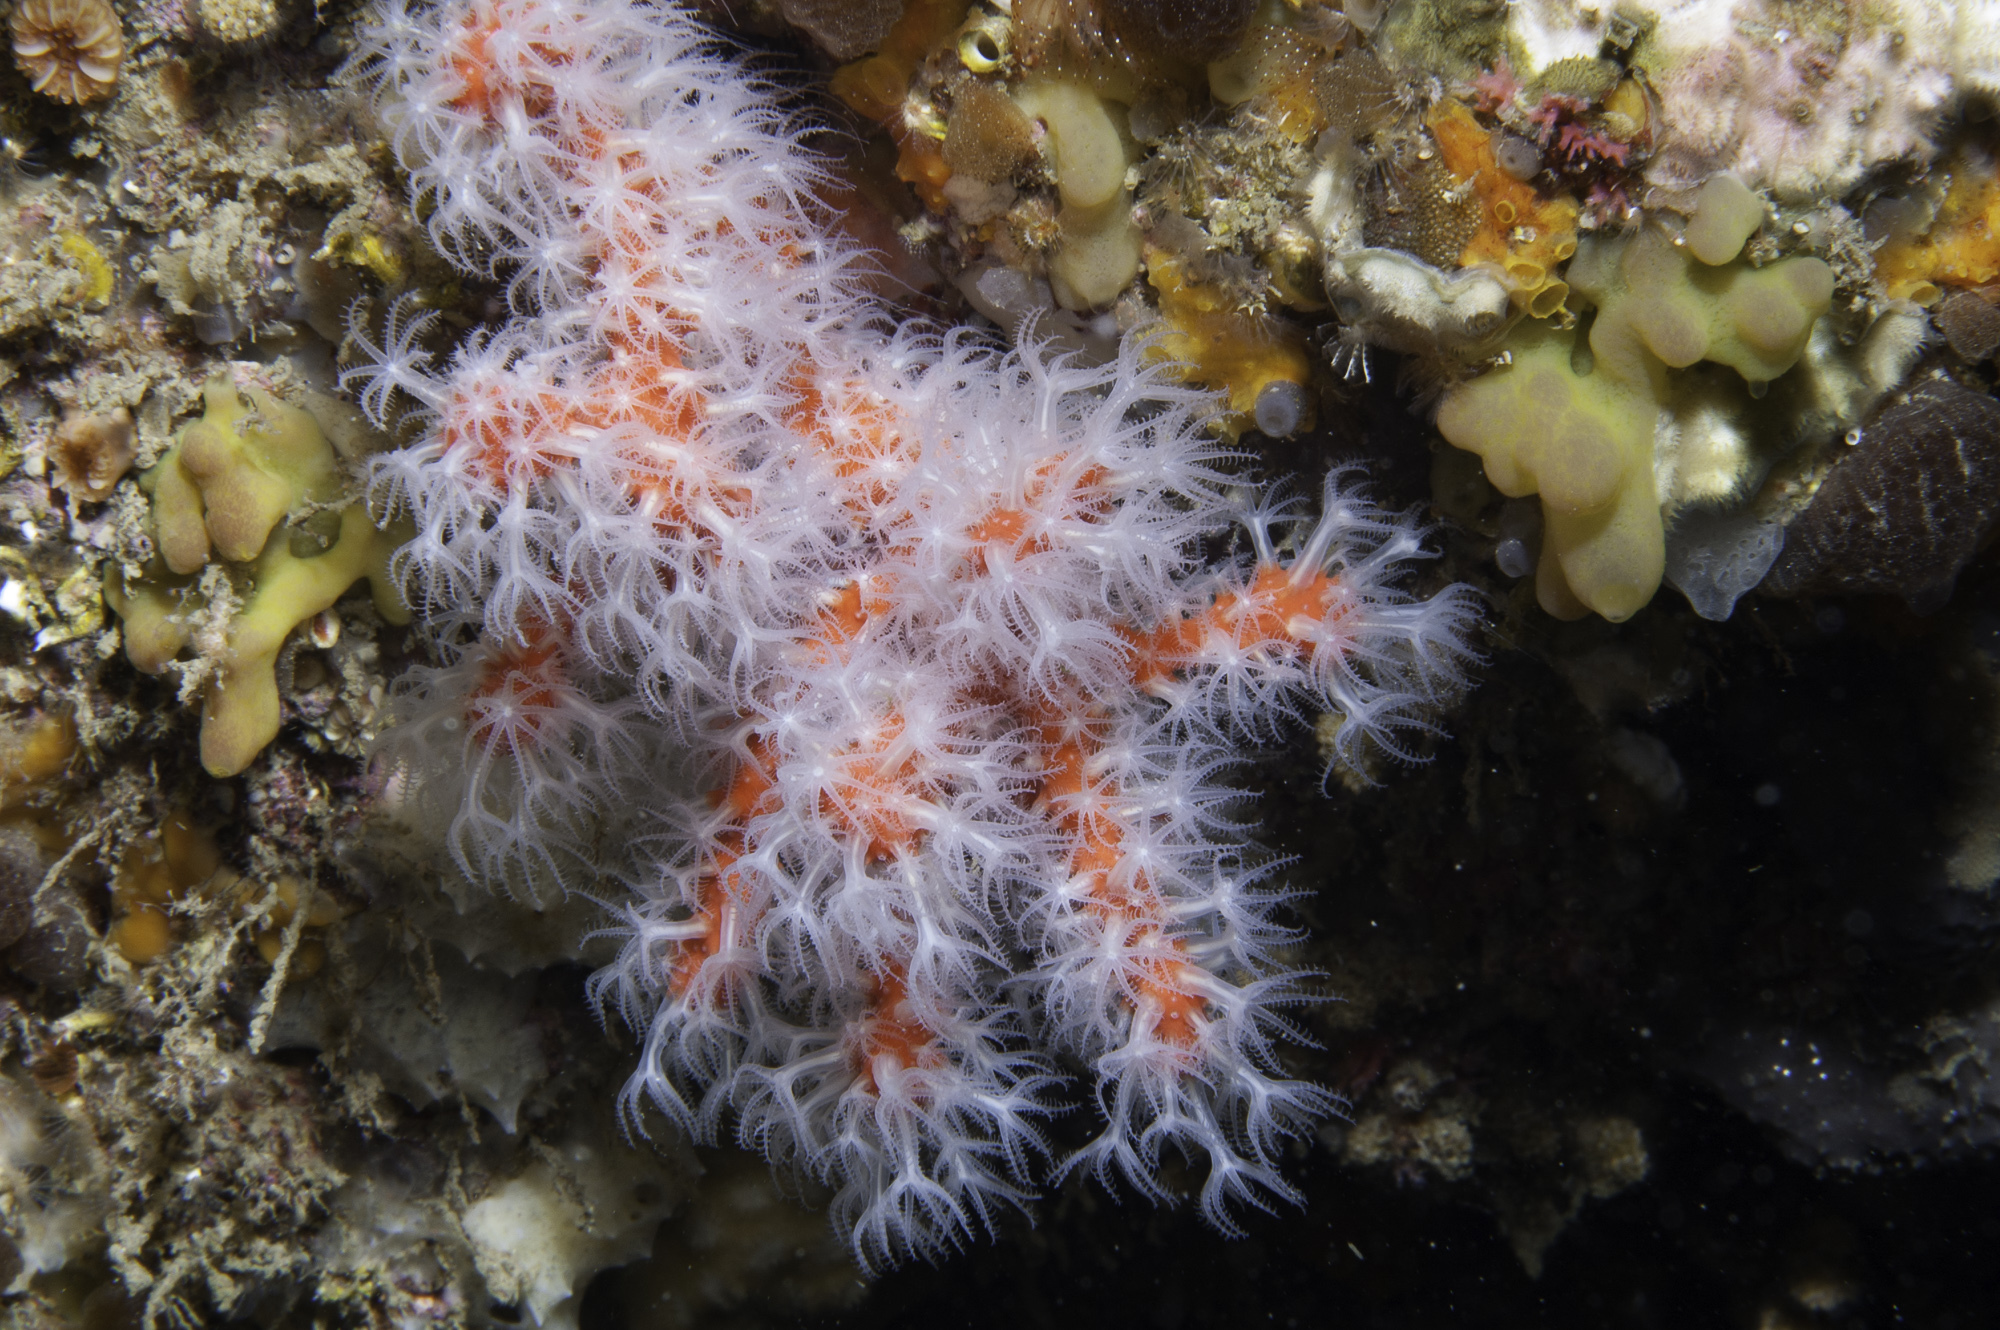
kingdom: Animalia
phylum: Cnidaria
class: Anthozoa
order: Scleralcyonacea
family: Coralliidae
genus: Corallium
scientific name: Corallium rubrum
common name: Precious coral
